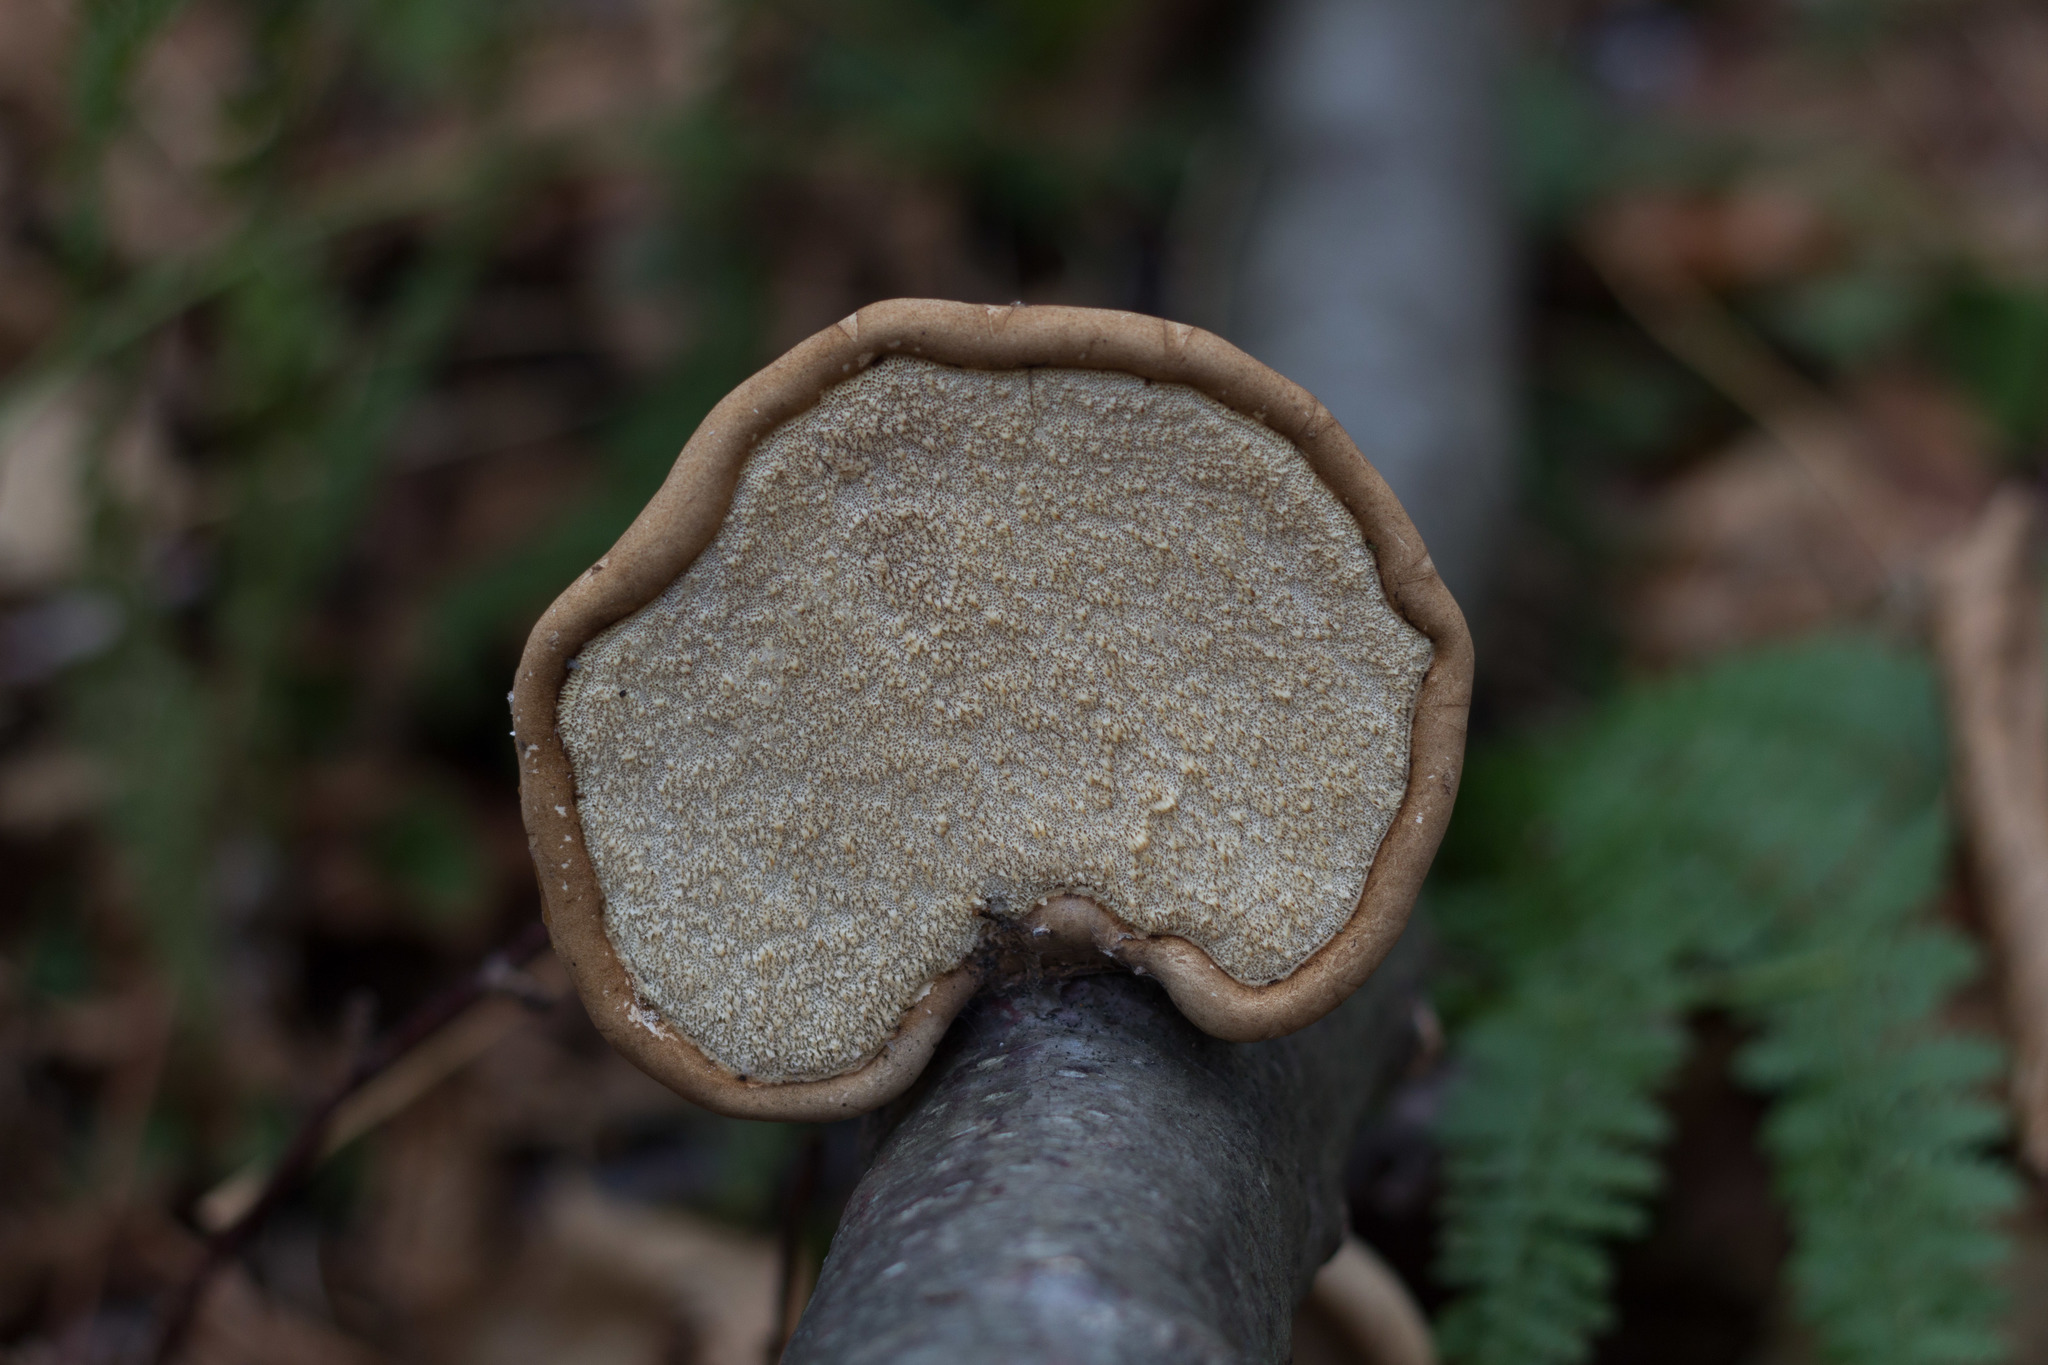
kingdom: Fungi
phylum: Basidiomycota
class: Agaricomycetes
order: Polyporales
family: Fomitopsidaceae
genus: Fomitopsis
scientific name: Fomitopsis betulina
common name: Birch polypore
